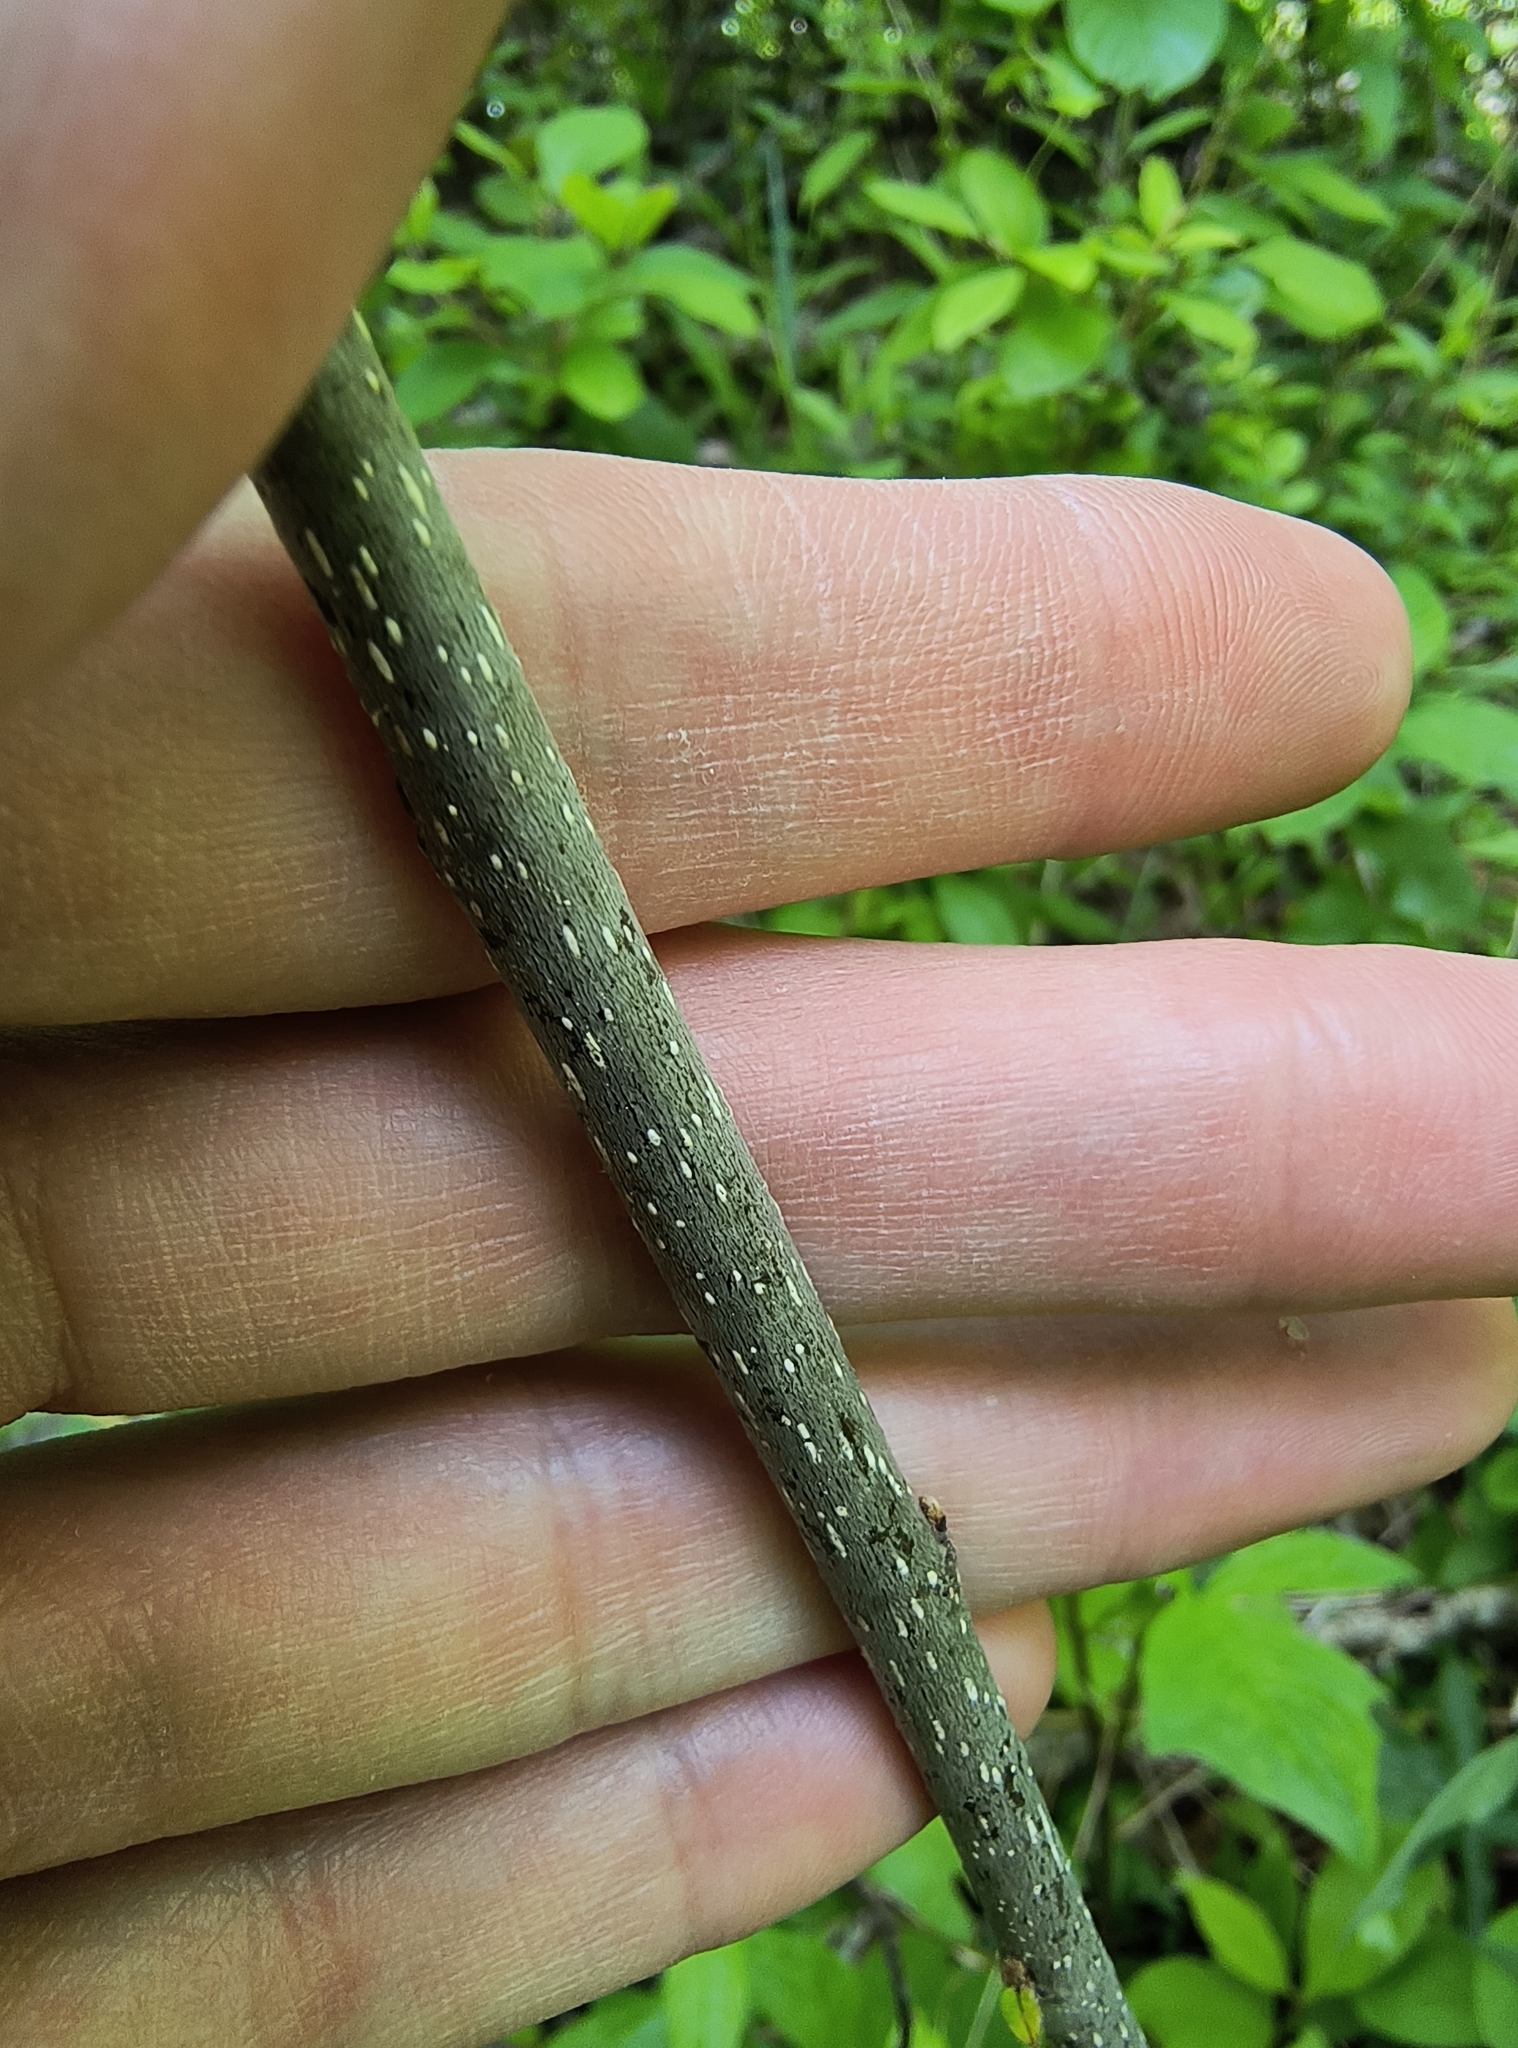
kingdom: Plantae
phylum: Tracheophyta
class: Magnoliopsida
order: Rosales
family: Rhamnaceae
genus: Frangula
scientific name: Frangula alnus
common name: Alder buckthorn
